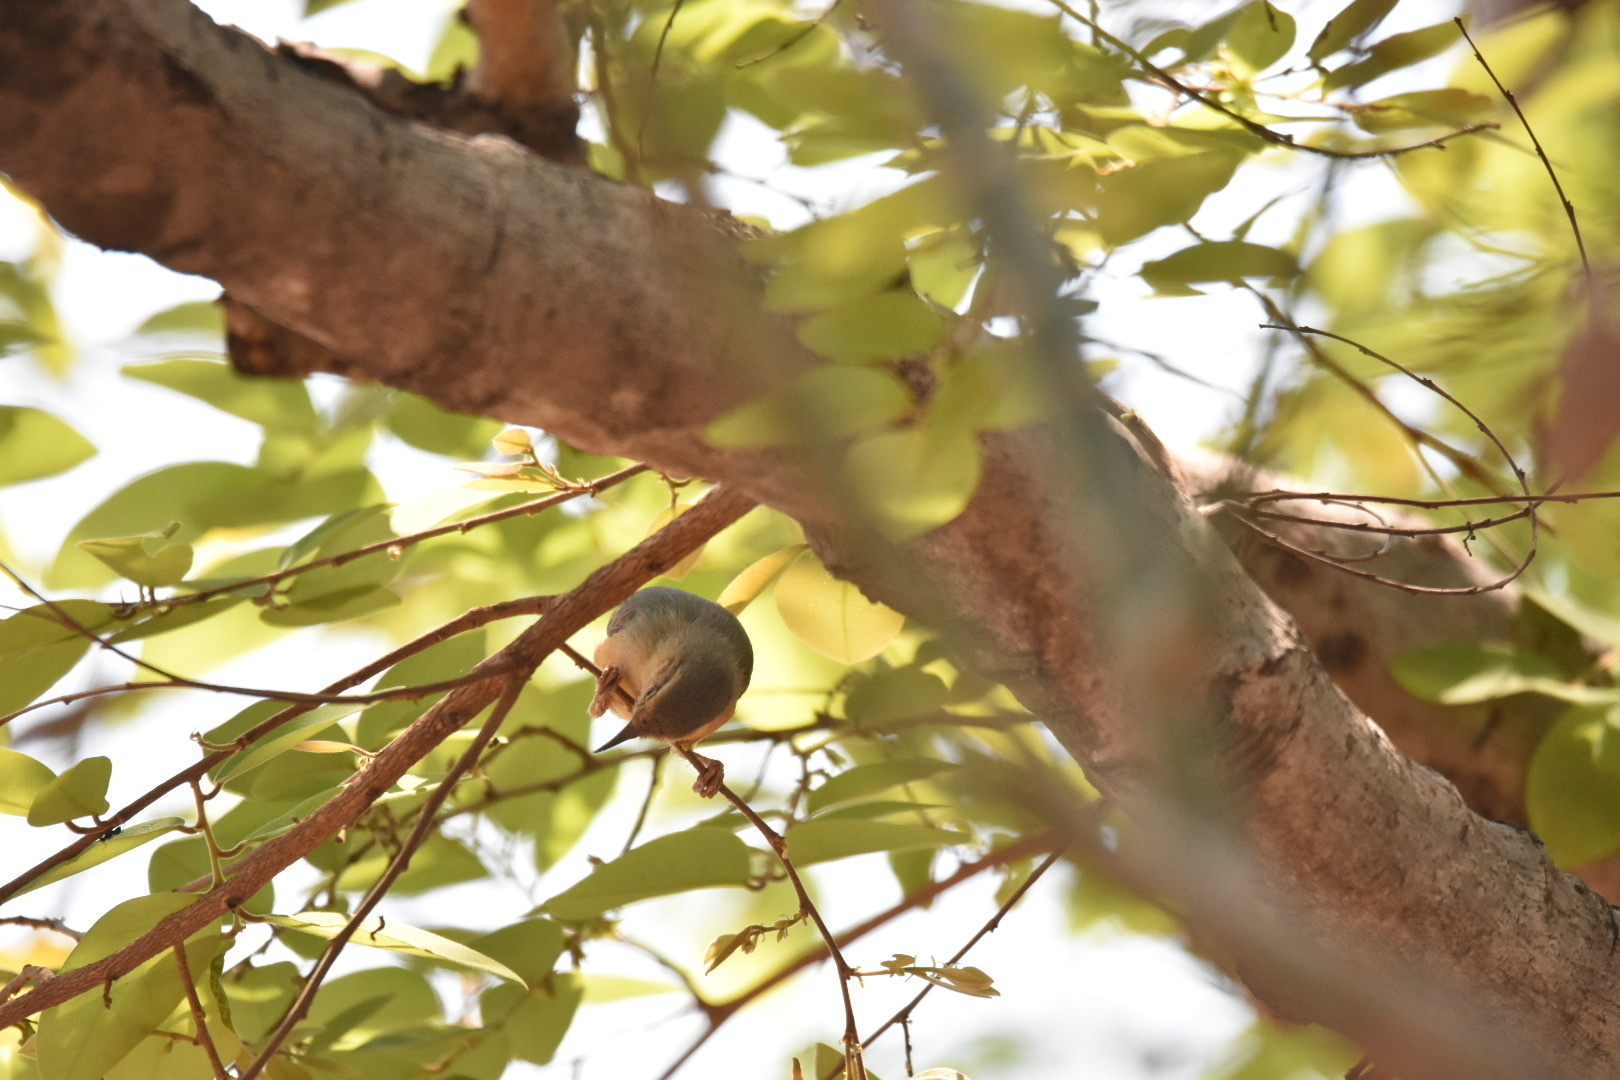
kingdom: Animalia
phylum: Chordata
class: Aves
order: Passeriformes
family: Macrosphenidae
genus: Sylvietta
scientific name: Sylvietta rufescens
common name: Long-billed crombec
